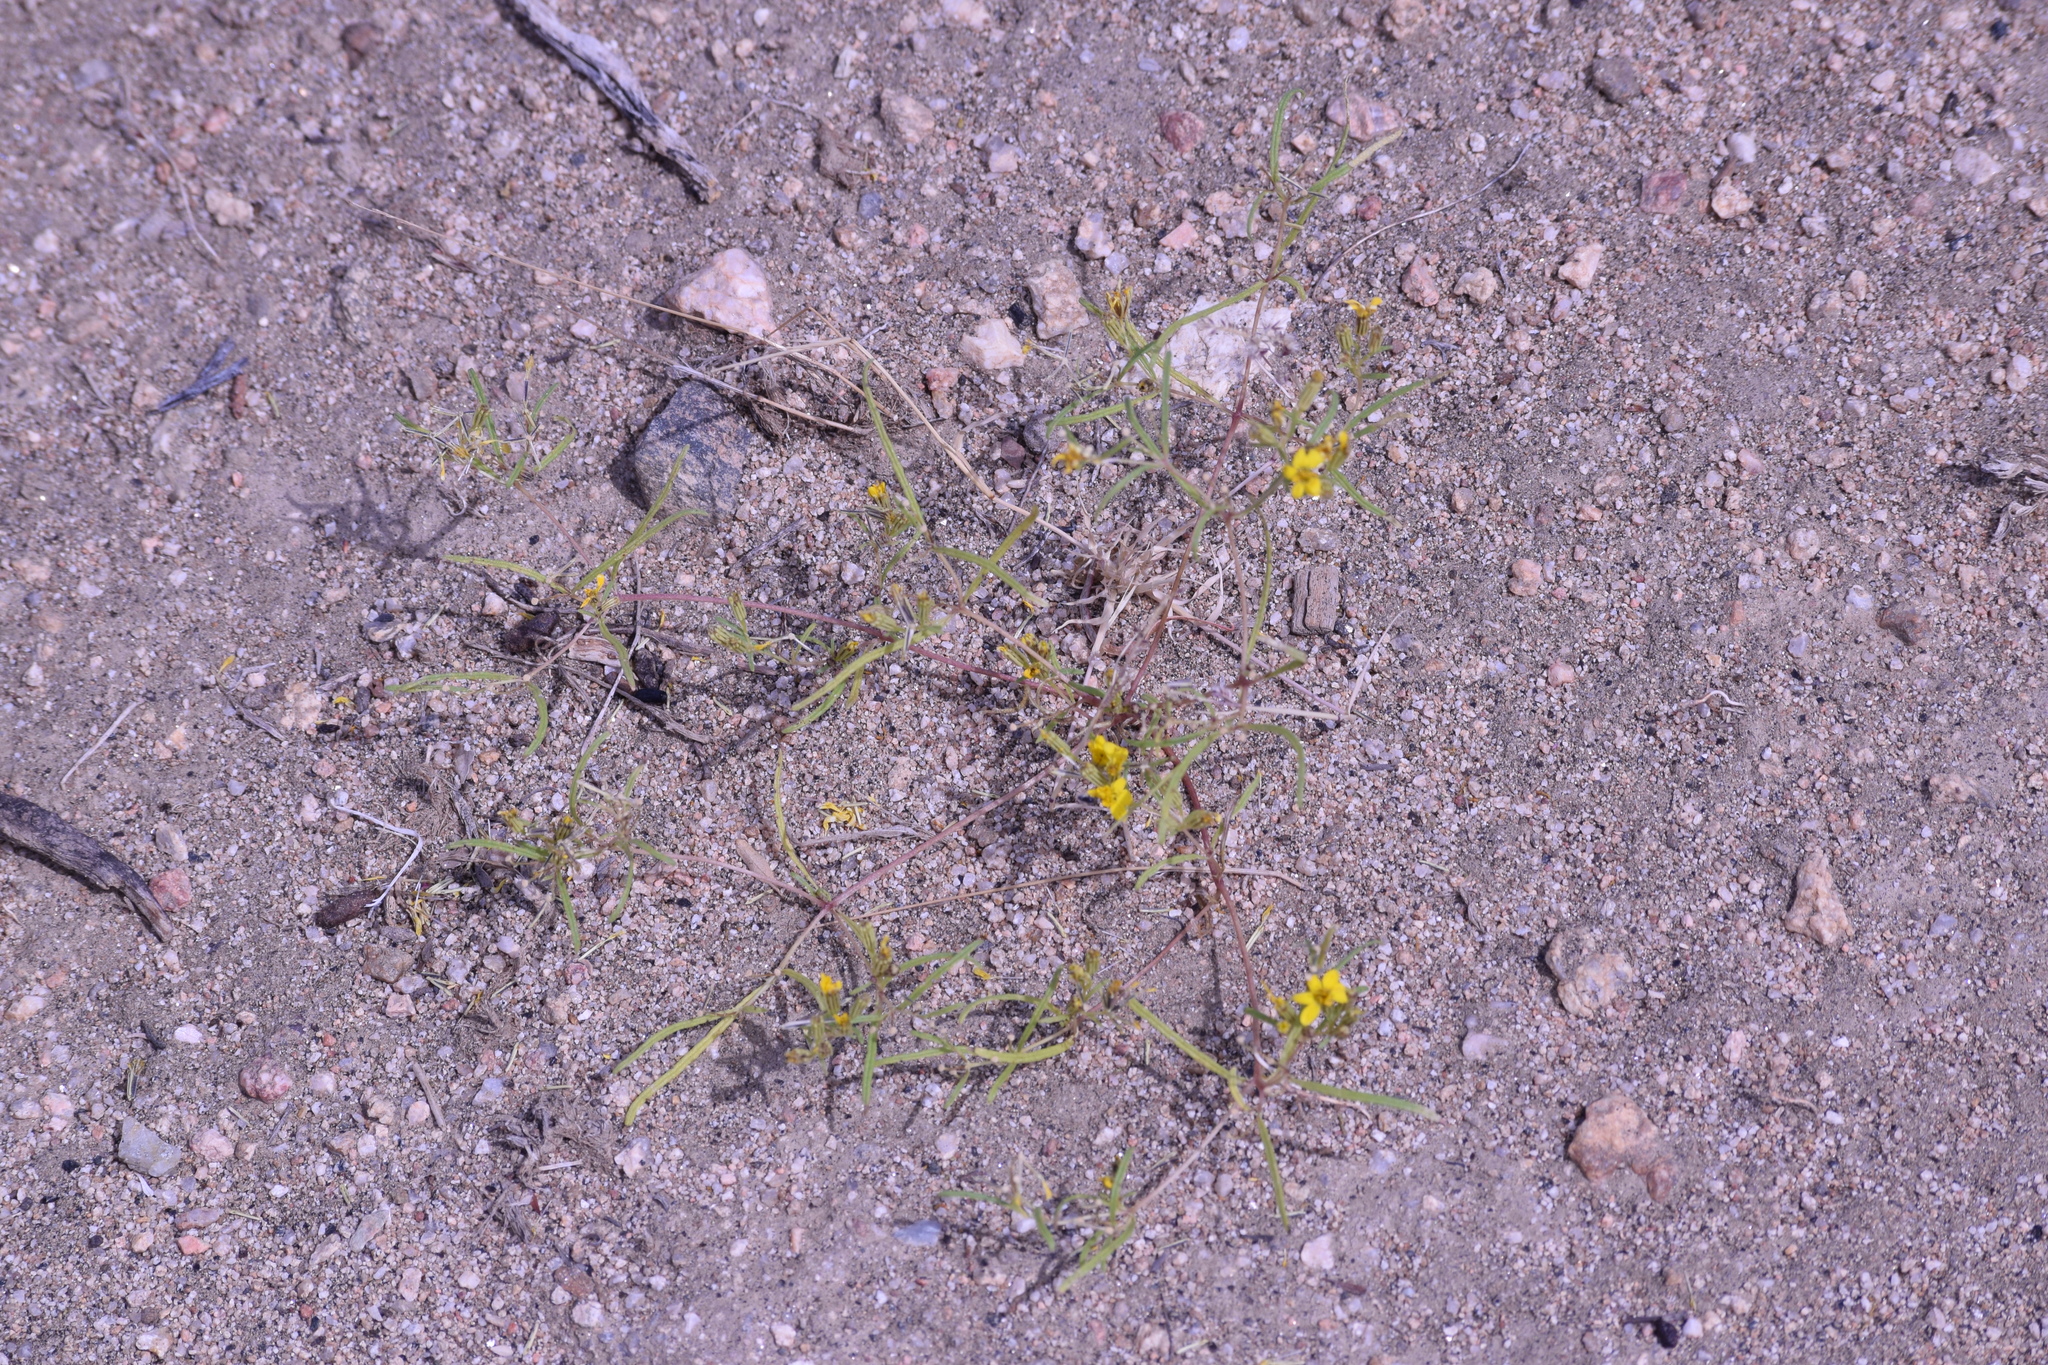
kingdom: Plantae
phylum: Tracheophyta
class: Magnoliopsida
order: Asterales
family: Asteraceae
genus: Pectis
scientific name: Pectis papposa
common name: Many-bristle chinchweed
